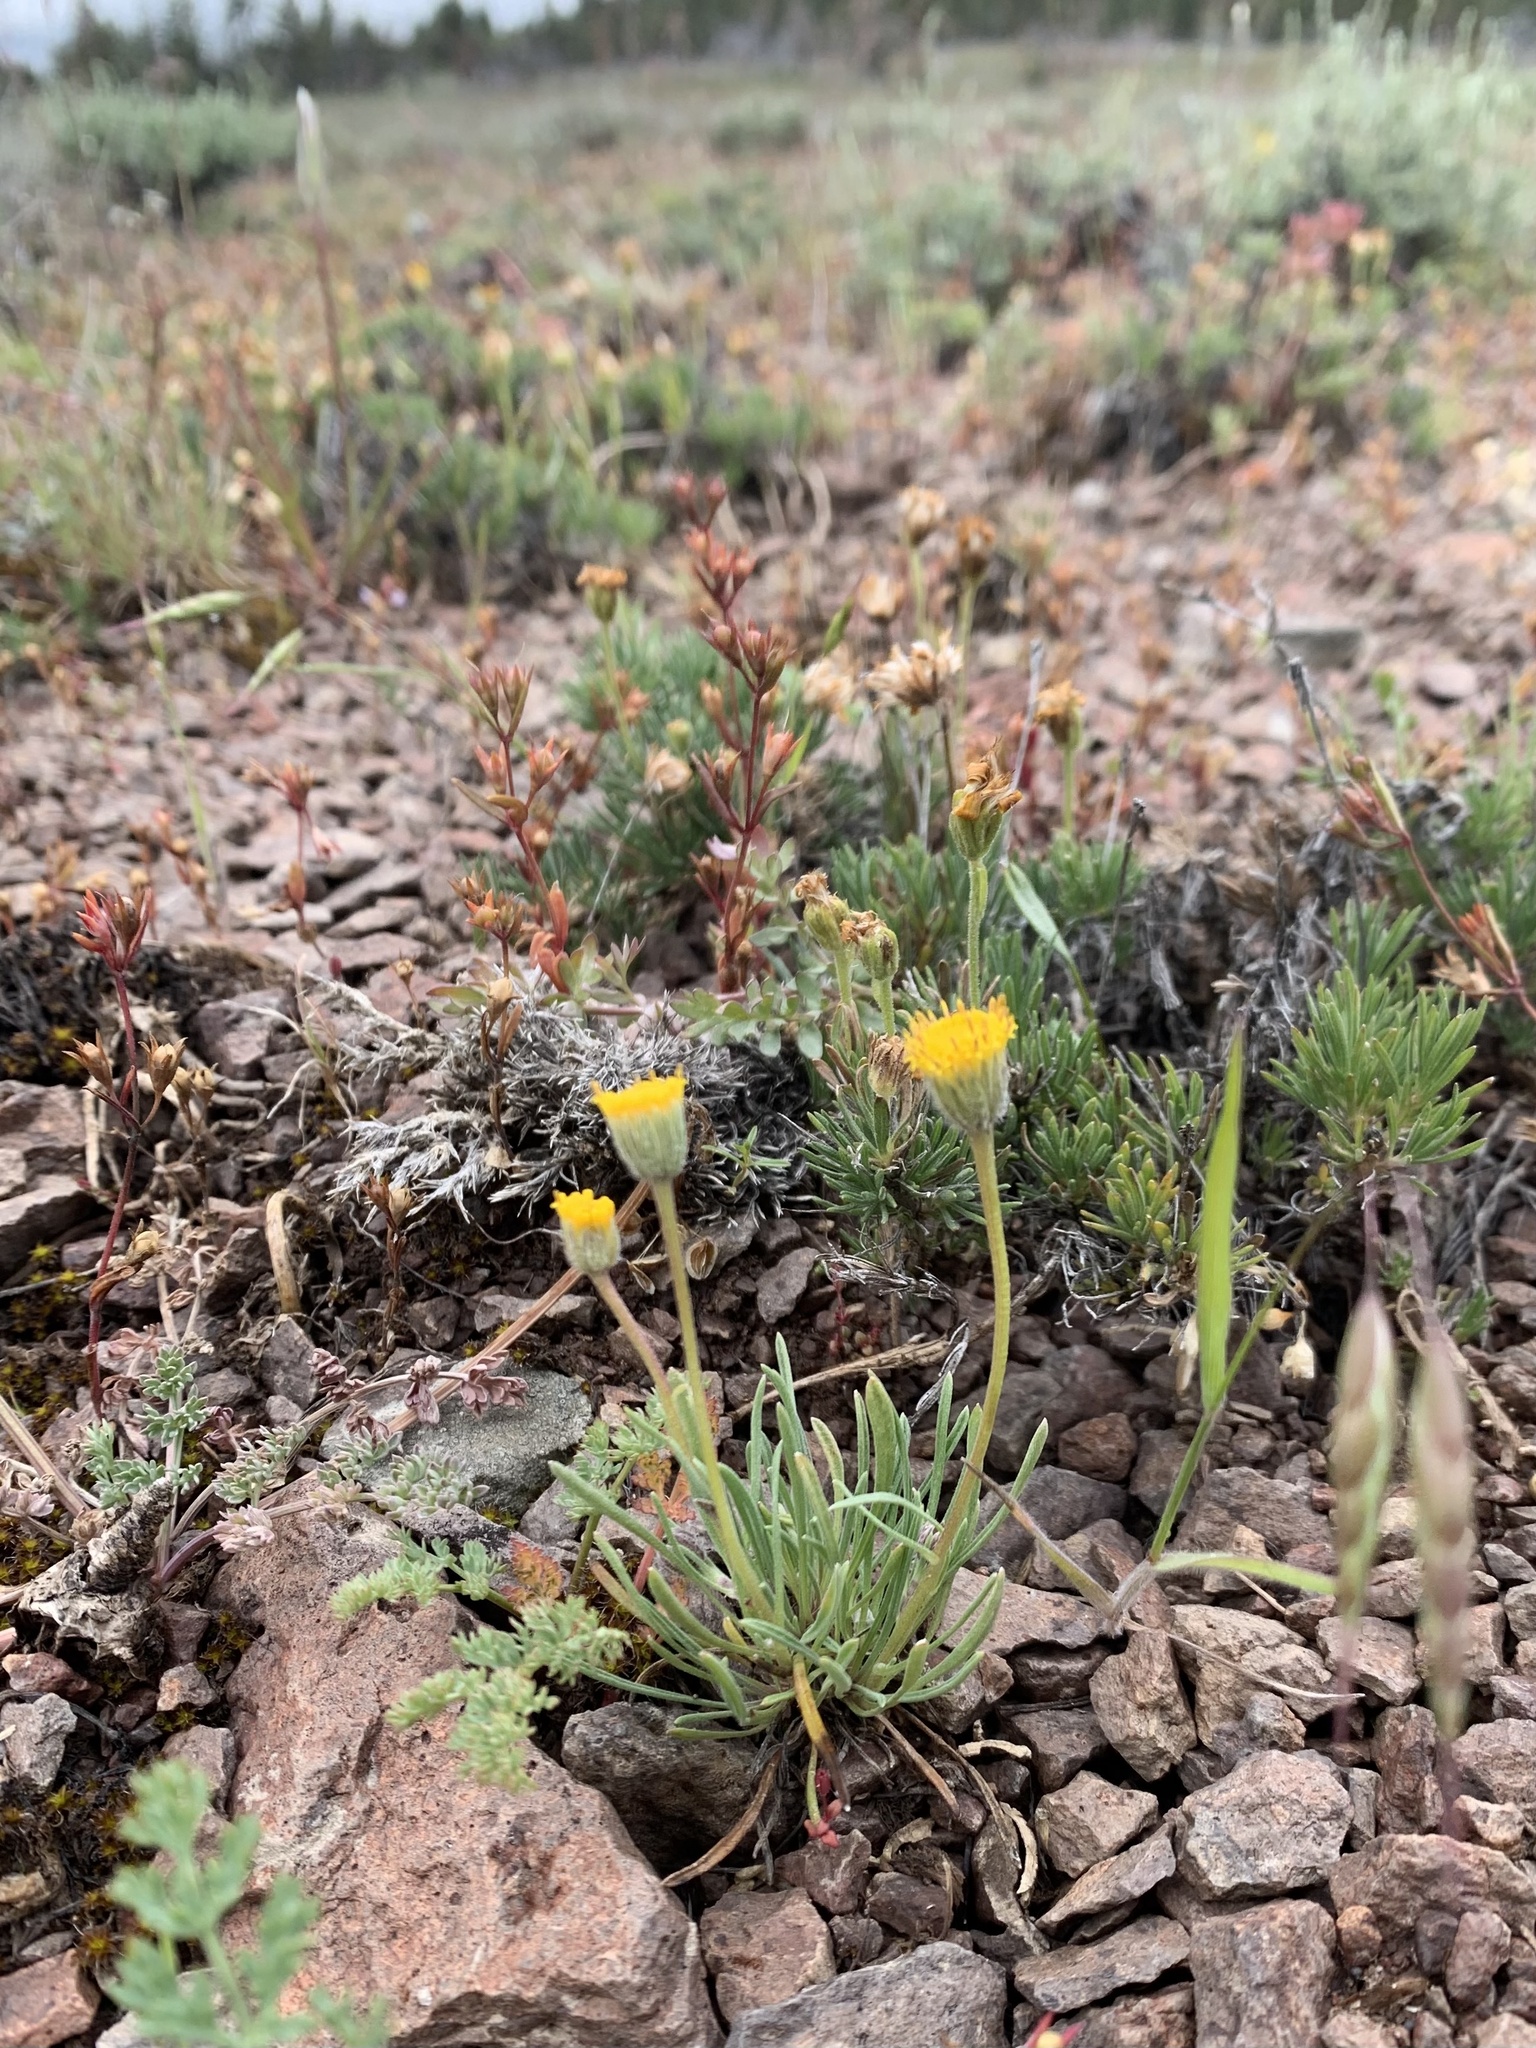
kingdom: Plantae
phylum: Tracheophyta
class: Magnoliopsida
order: Asterales
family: Asteraceae
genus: Erigeron
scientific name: Erigeron bloomeri
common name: Bloomer's fleabane
